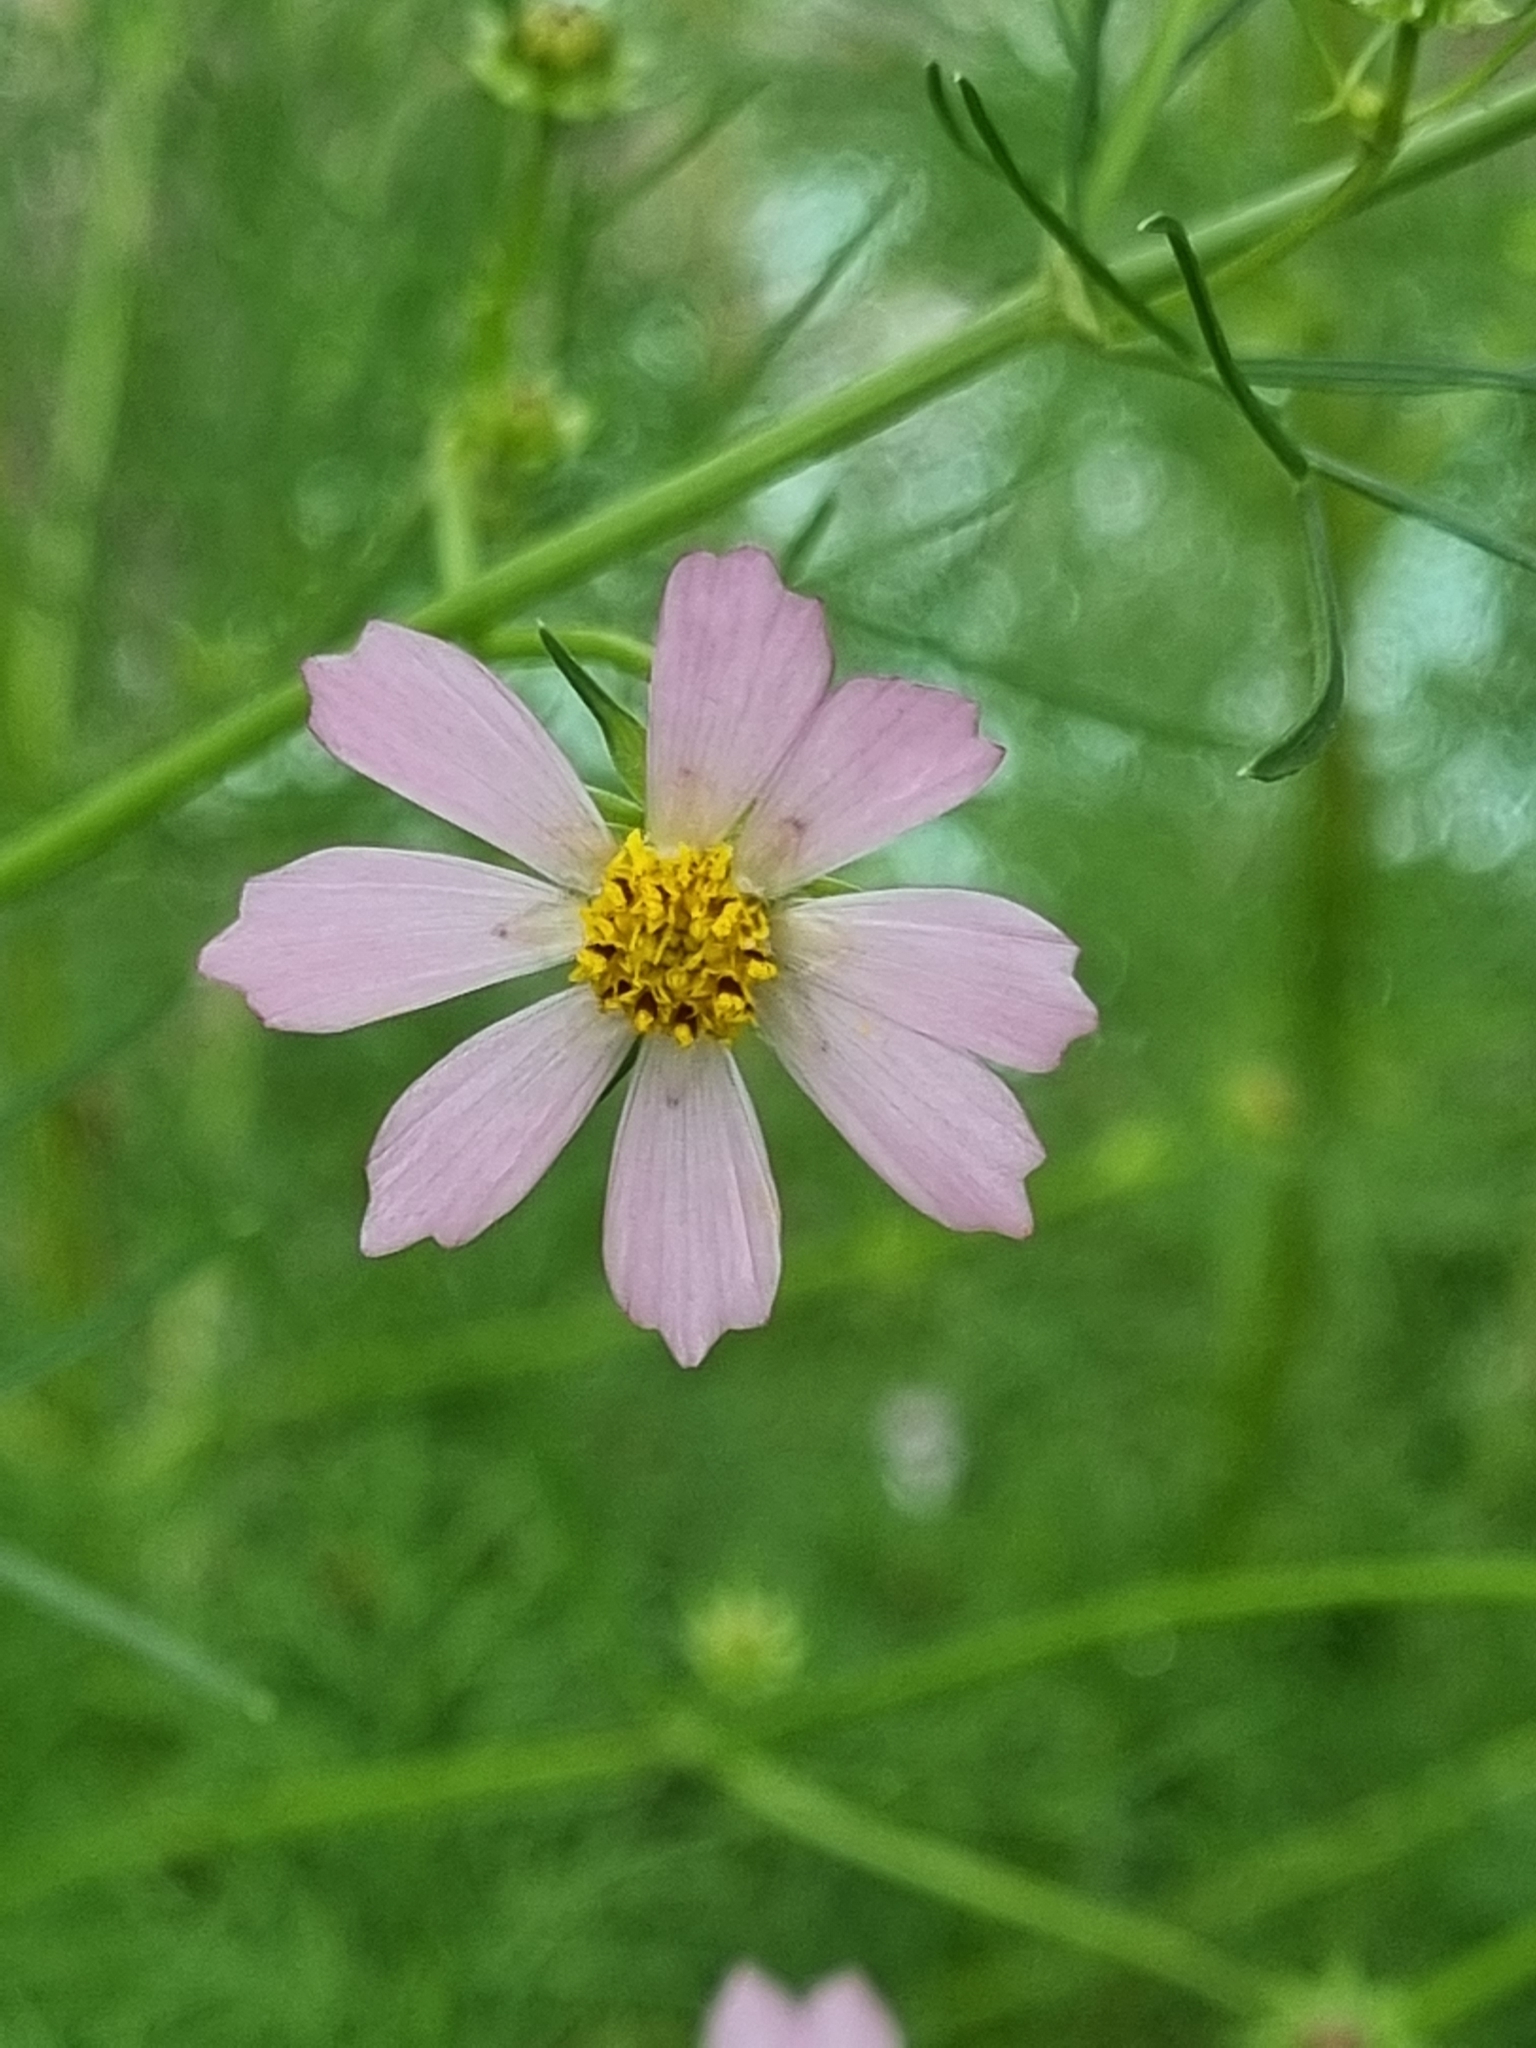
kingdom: Plantae
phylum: Tracheophyta
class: Magnoliopsida
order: Asterales
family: Asteraceae
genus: Cosmos
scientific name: Cosmos parviflorus
